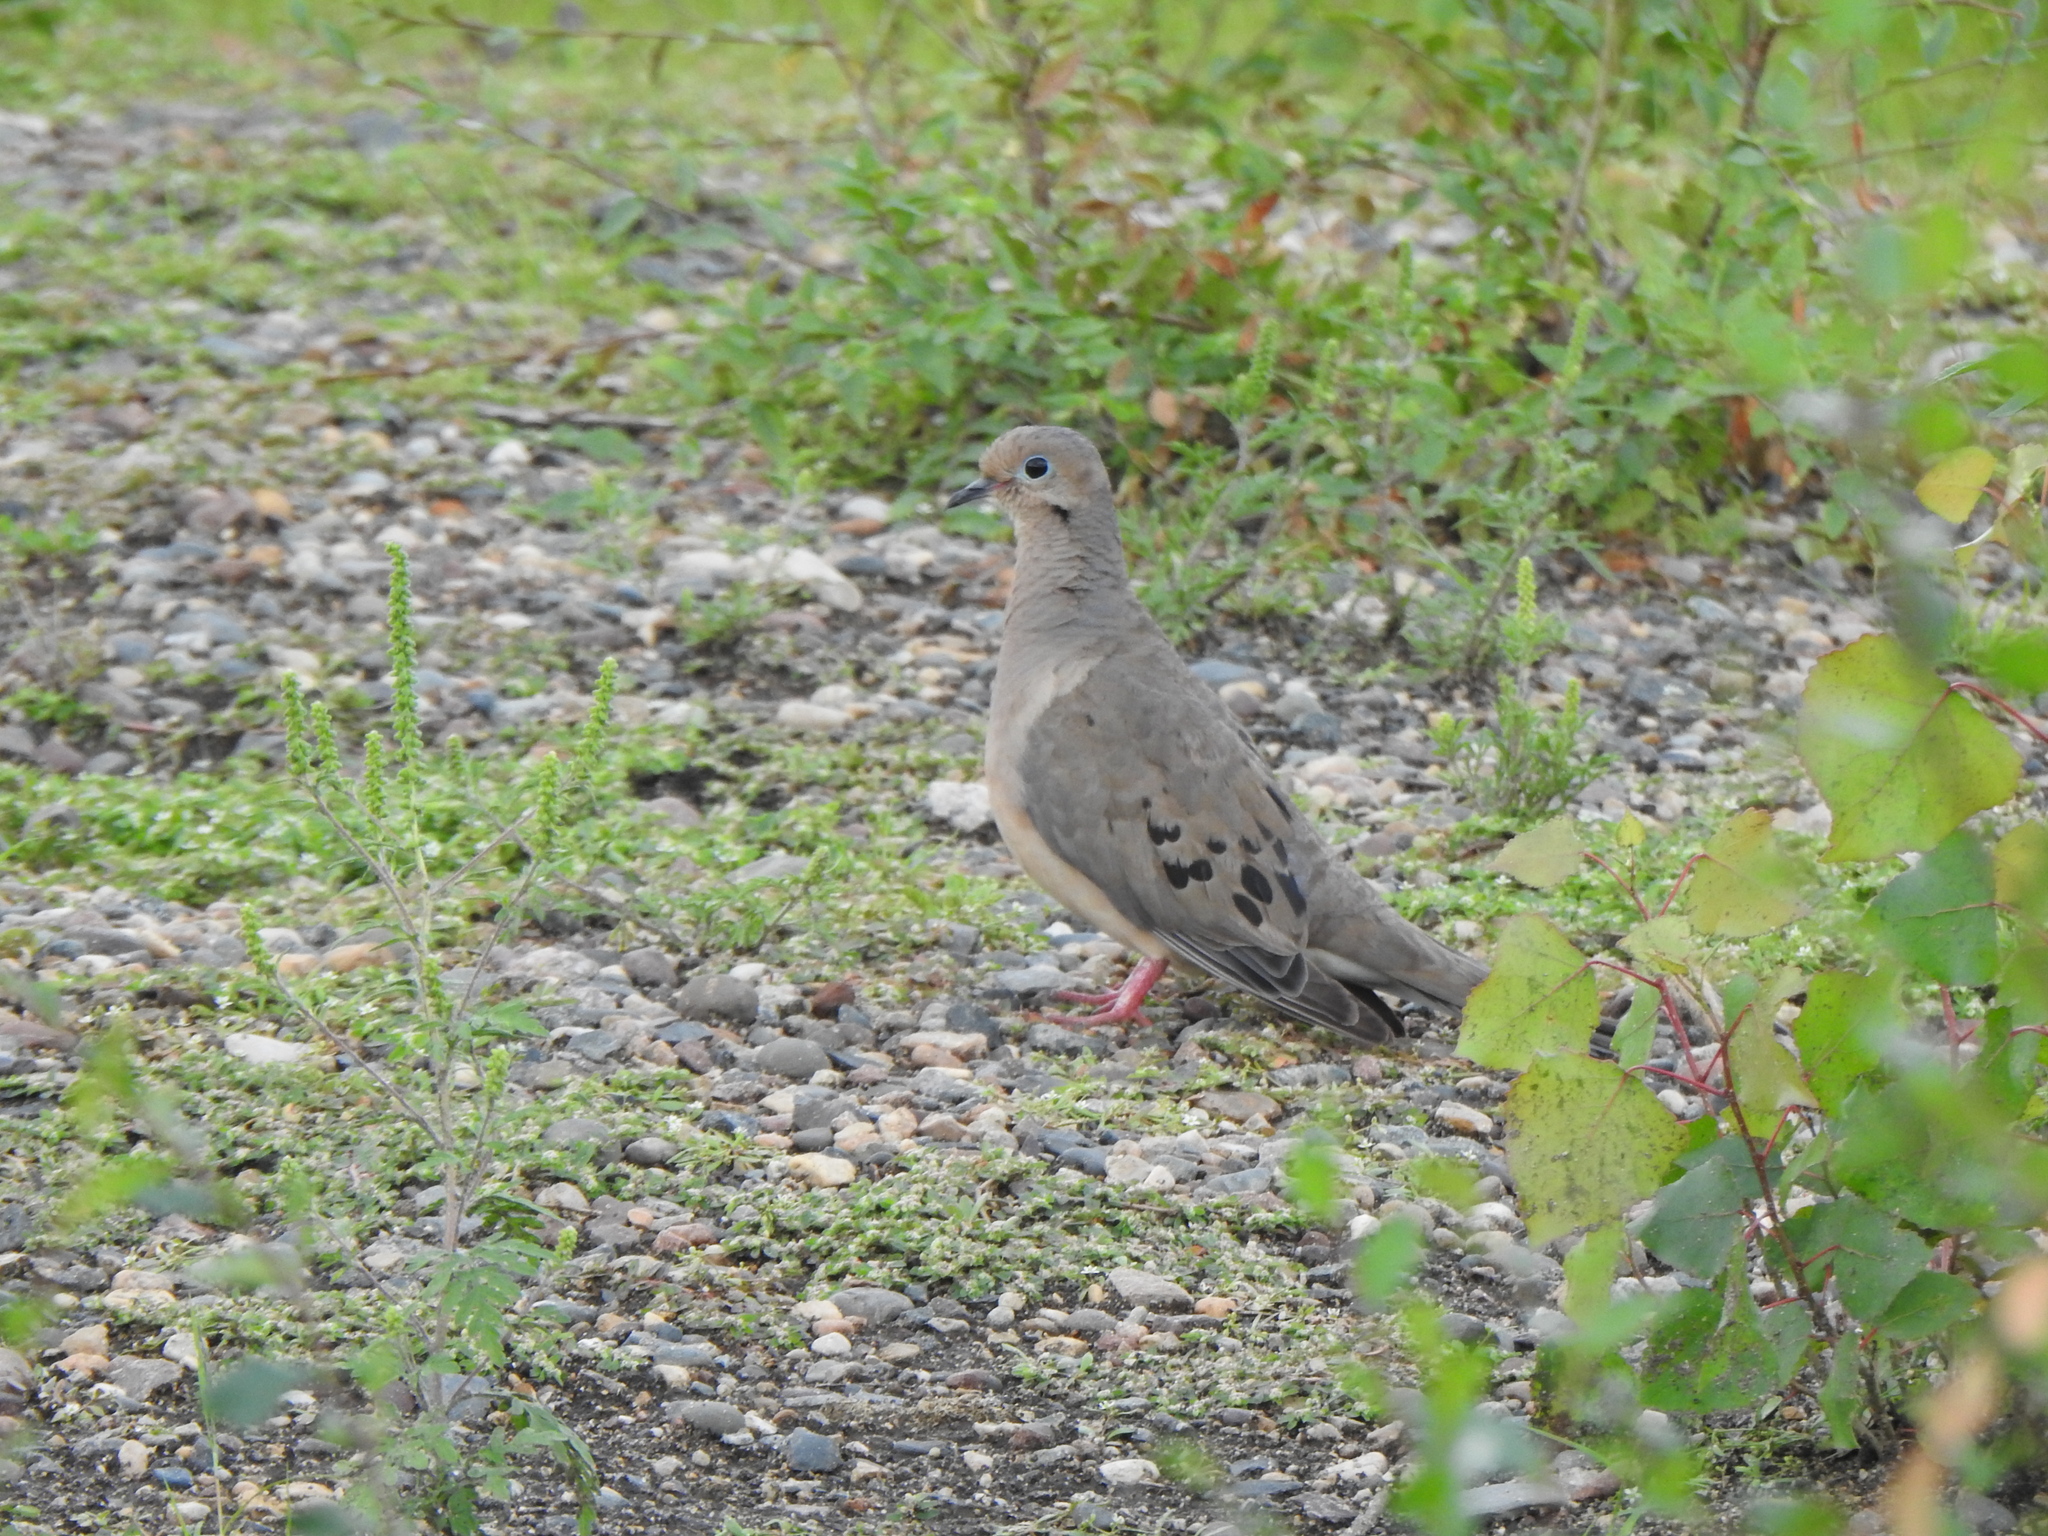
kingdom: Animalia
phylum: Chordata
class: Aves
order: Columbiformes
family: Columbidae
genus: Zenaida
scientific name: Zenaida macroura
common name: Mourning dove
